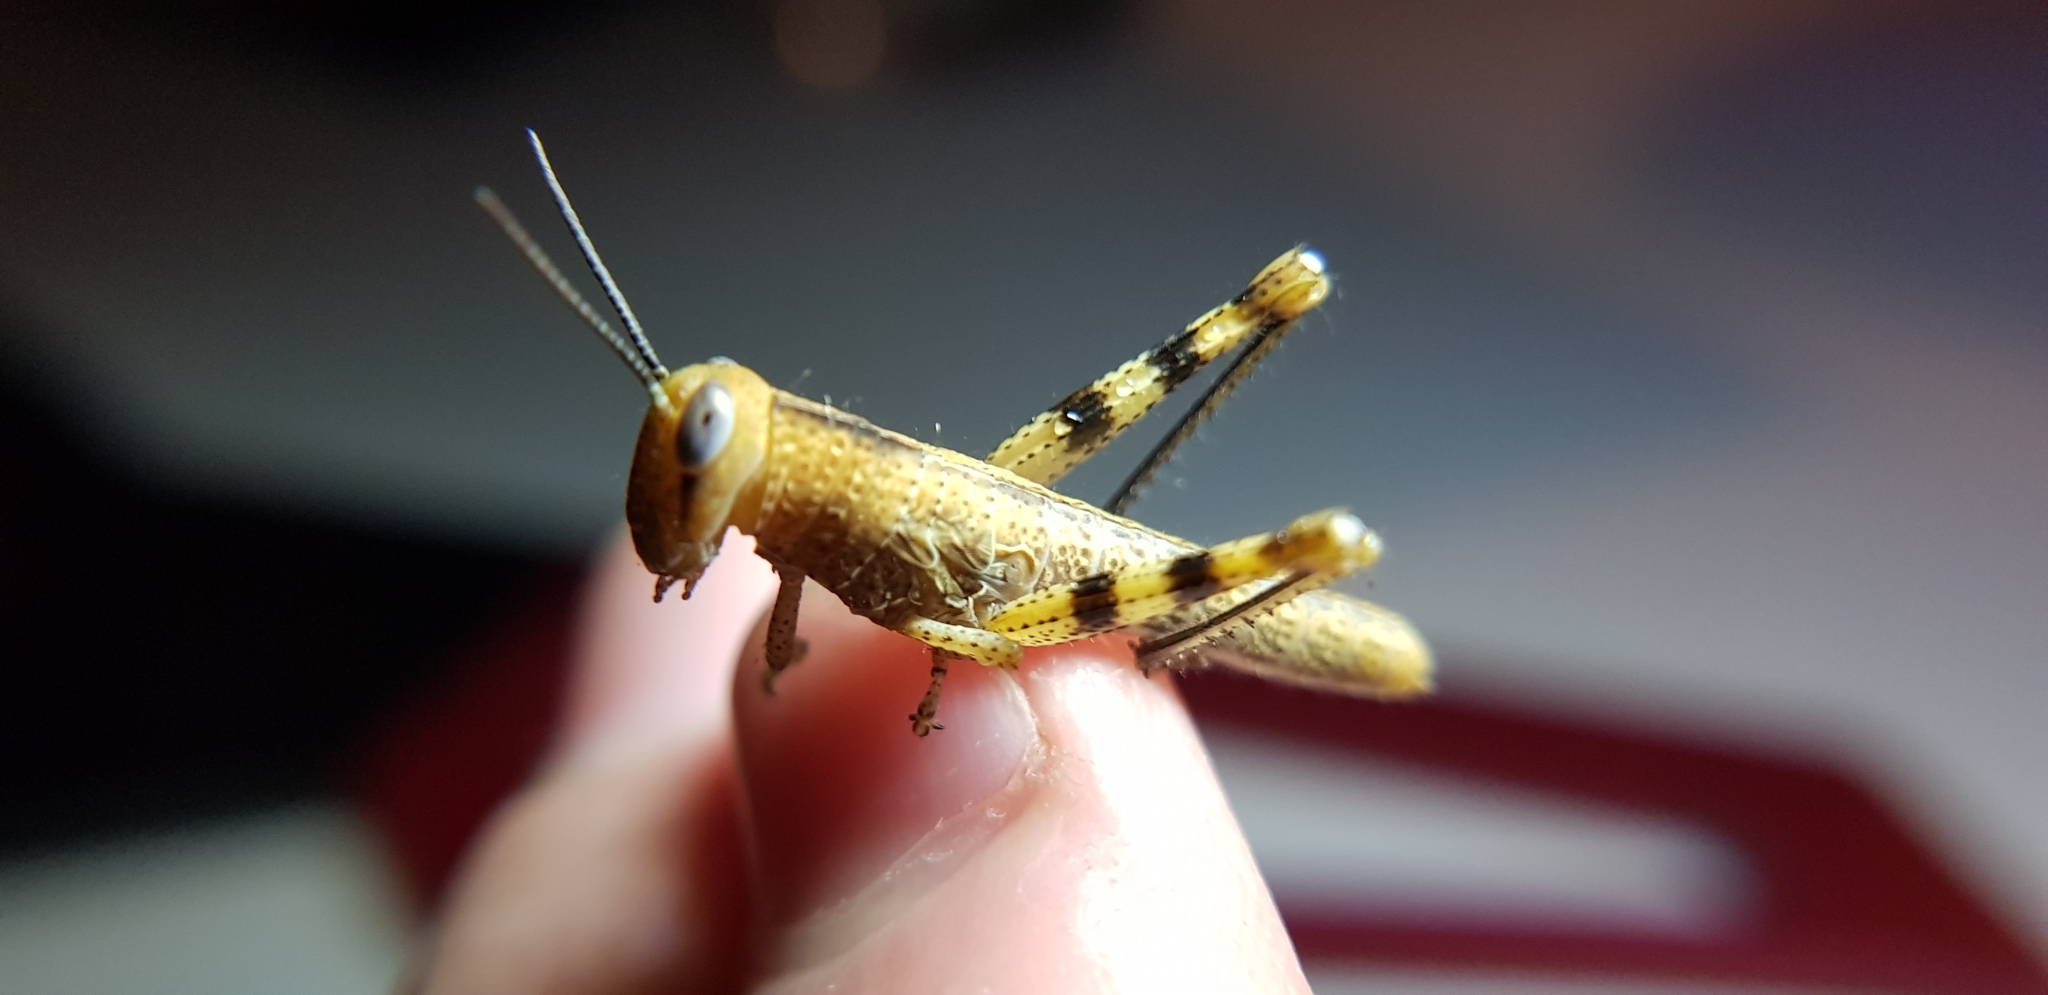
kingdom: Animalia
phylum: Arthropoda
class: Insecta
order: Orthoptera
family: Acrididae
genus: Valanga
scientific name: Valanga irregularis
